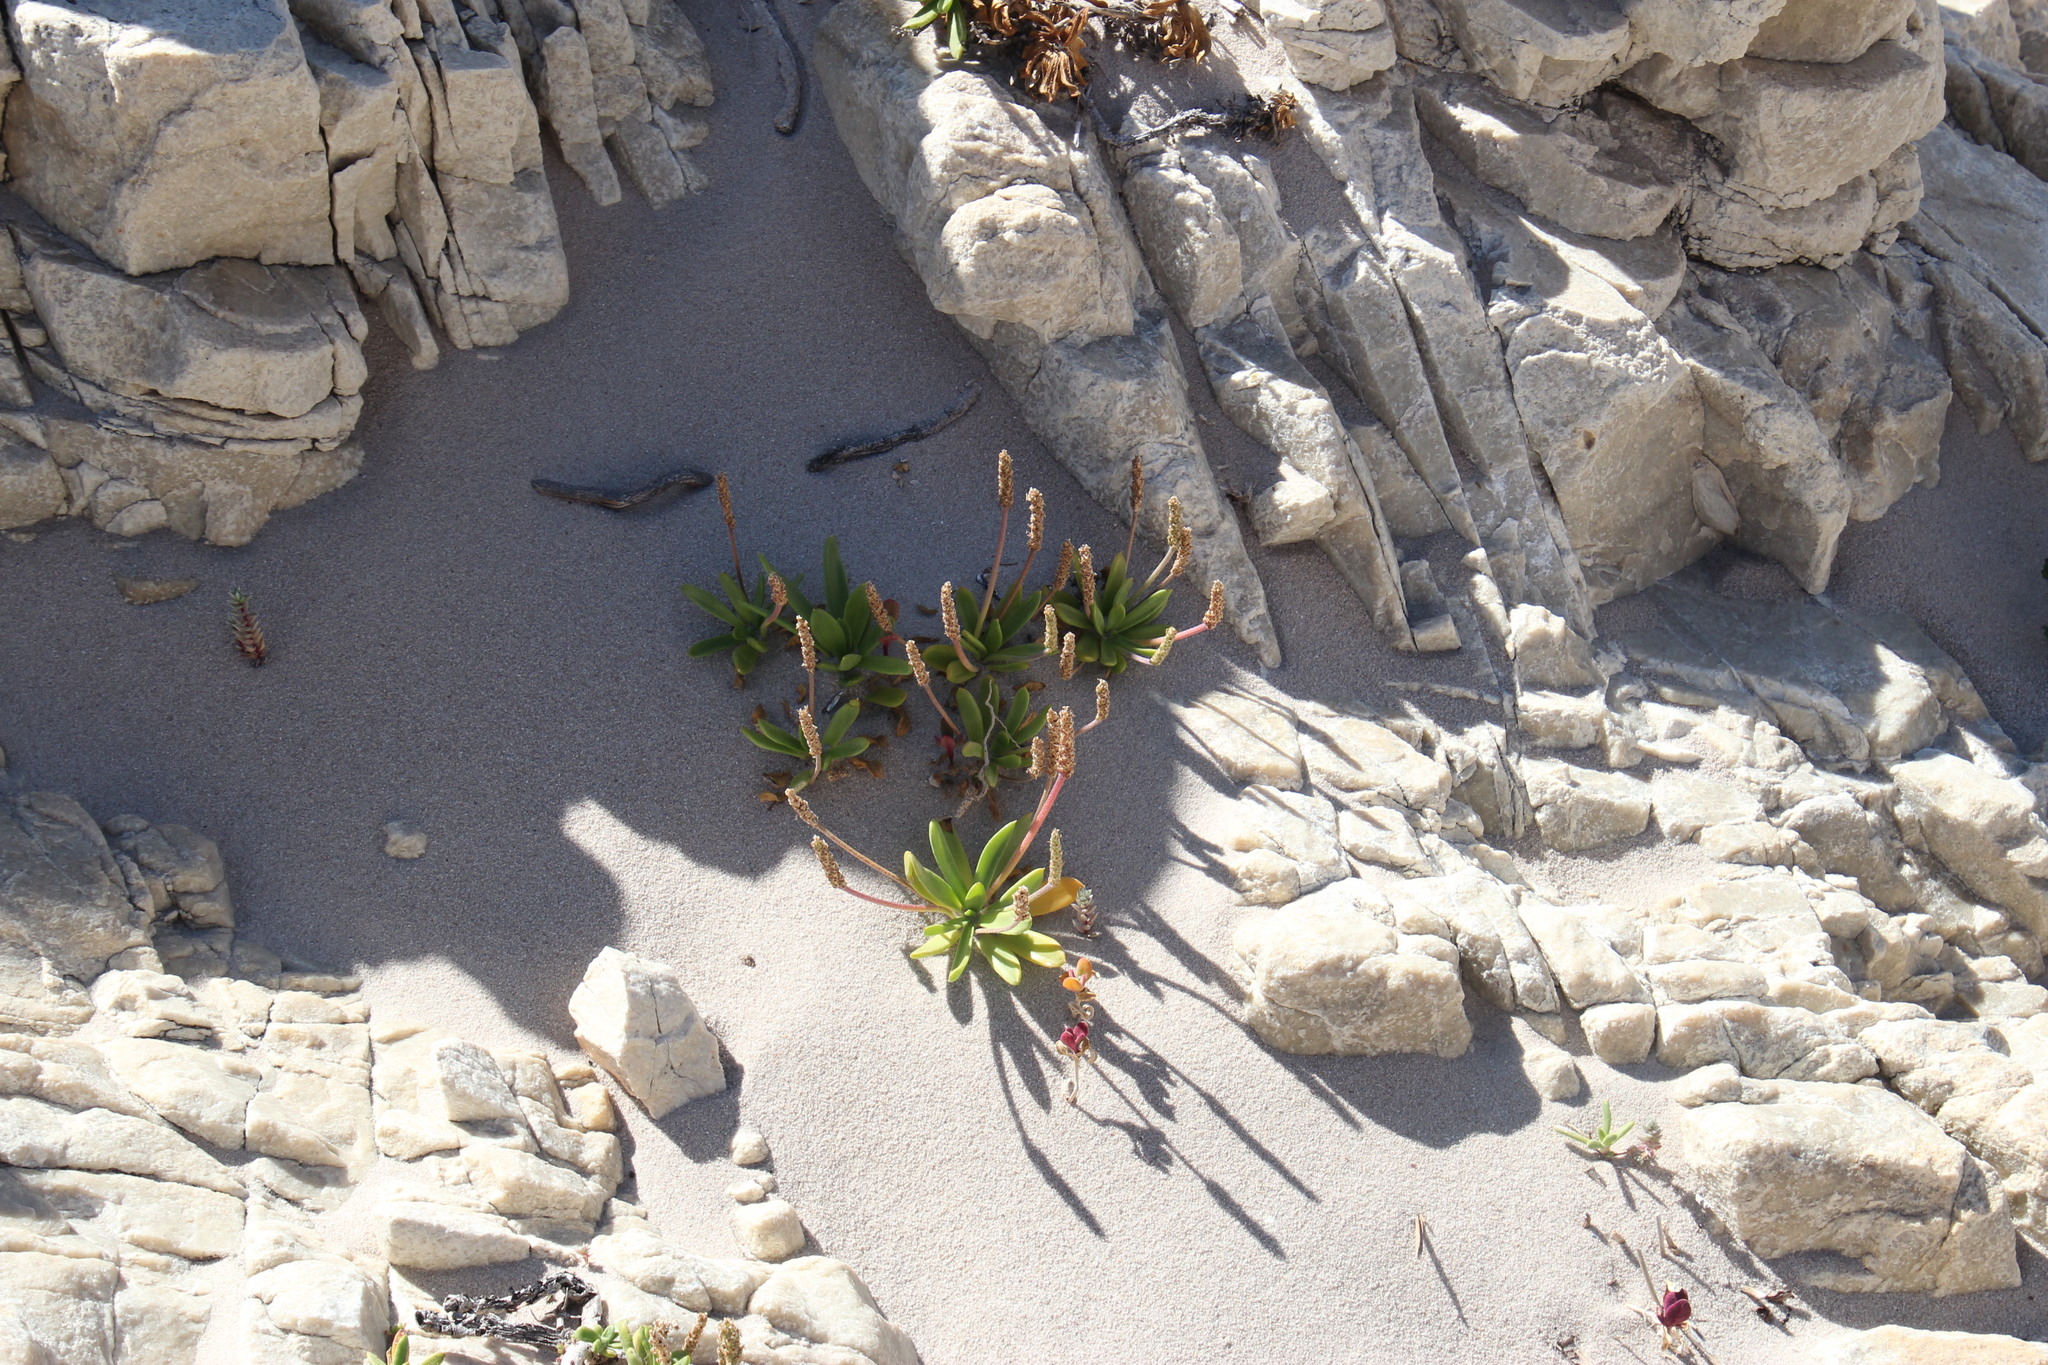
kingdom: Plantae
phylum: Tracheophyta
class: Magnoliopsida
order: Lamiales
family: Plantaginaceae
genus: Plantago
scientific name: Plantago carnosa
